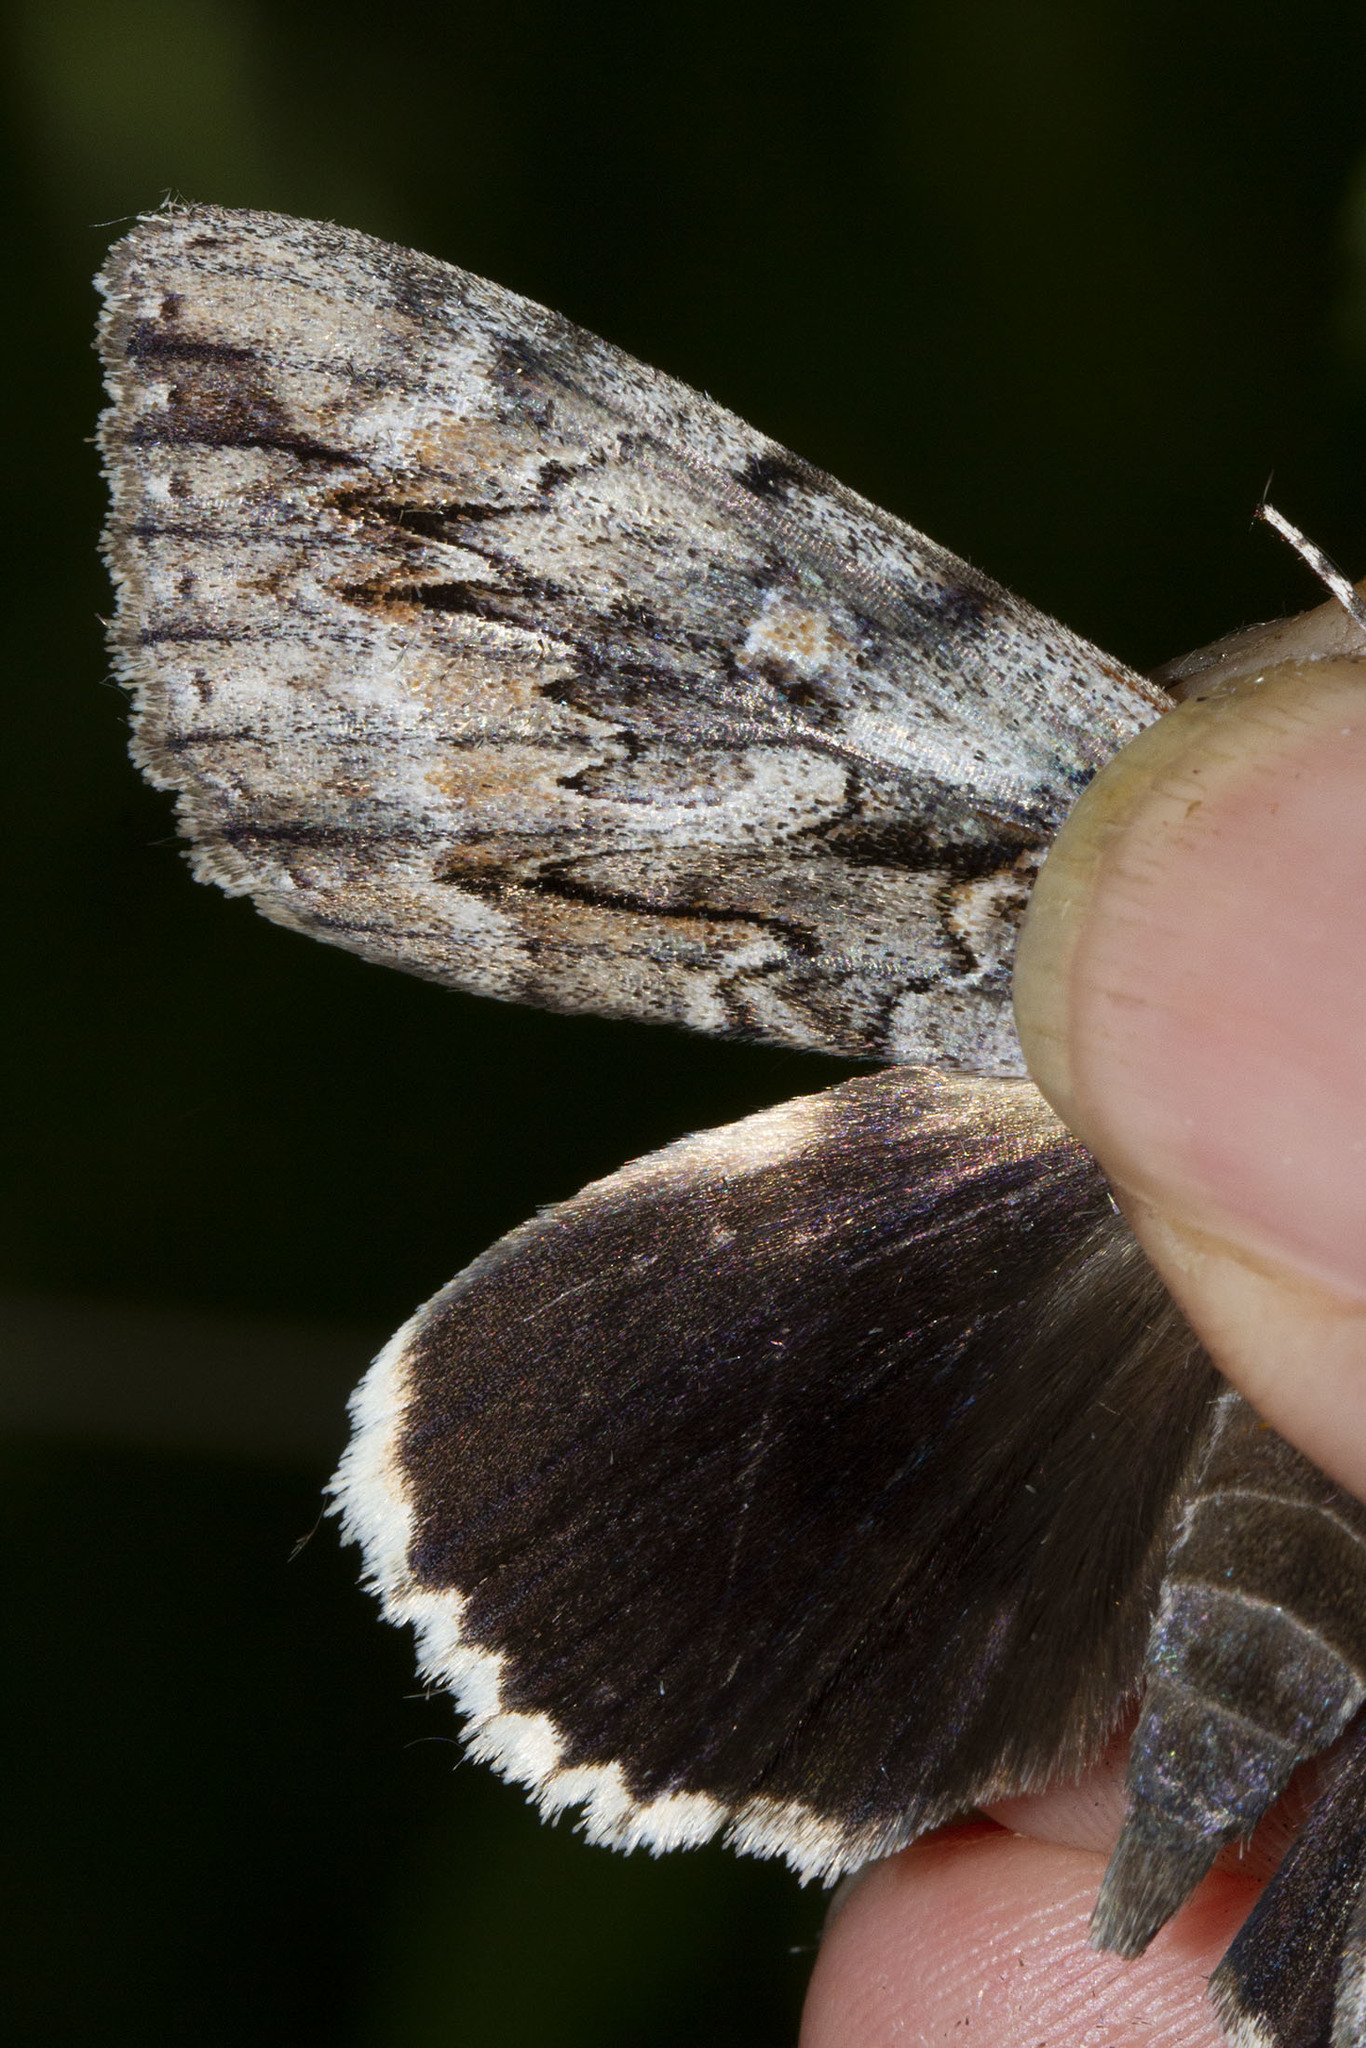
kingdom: Animalia
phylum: Arthropoda
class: Insecta
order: Lepidoptera
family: Erebidae
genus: Catocala
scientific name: Catocala retecta
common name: Yellow-gray underwing
